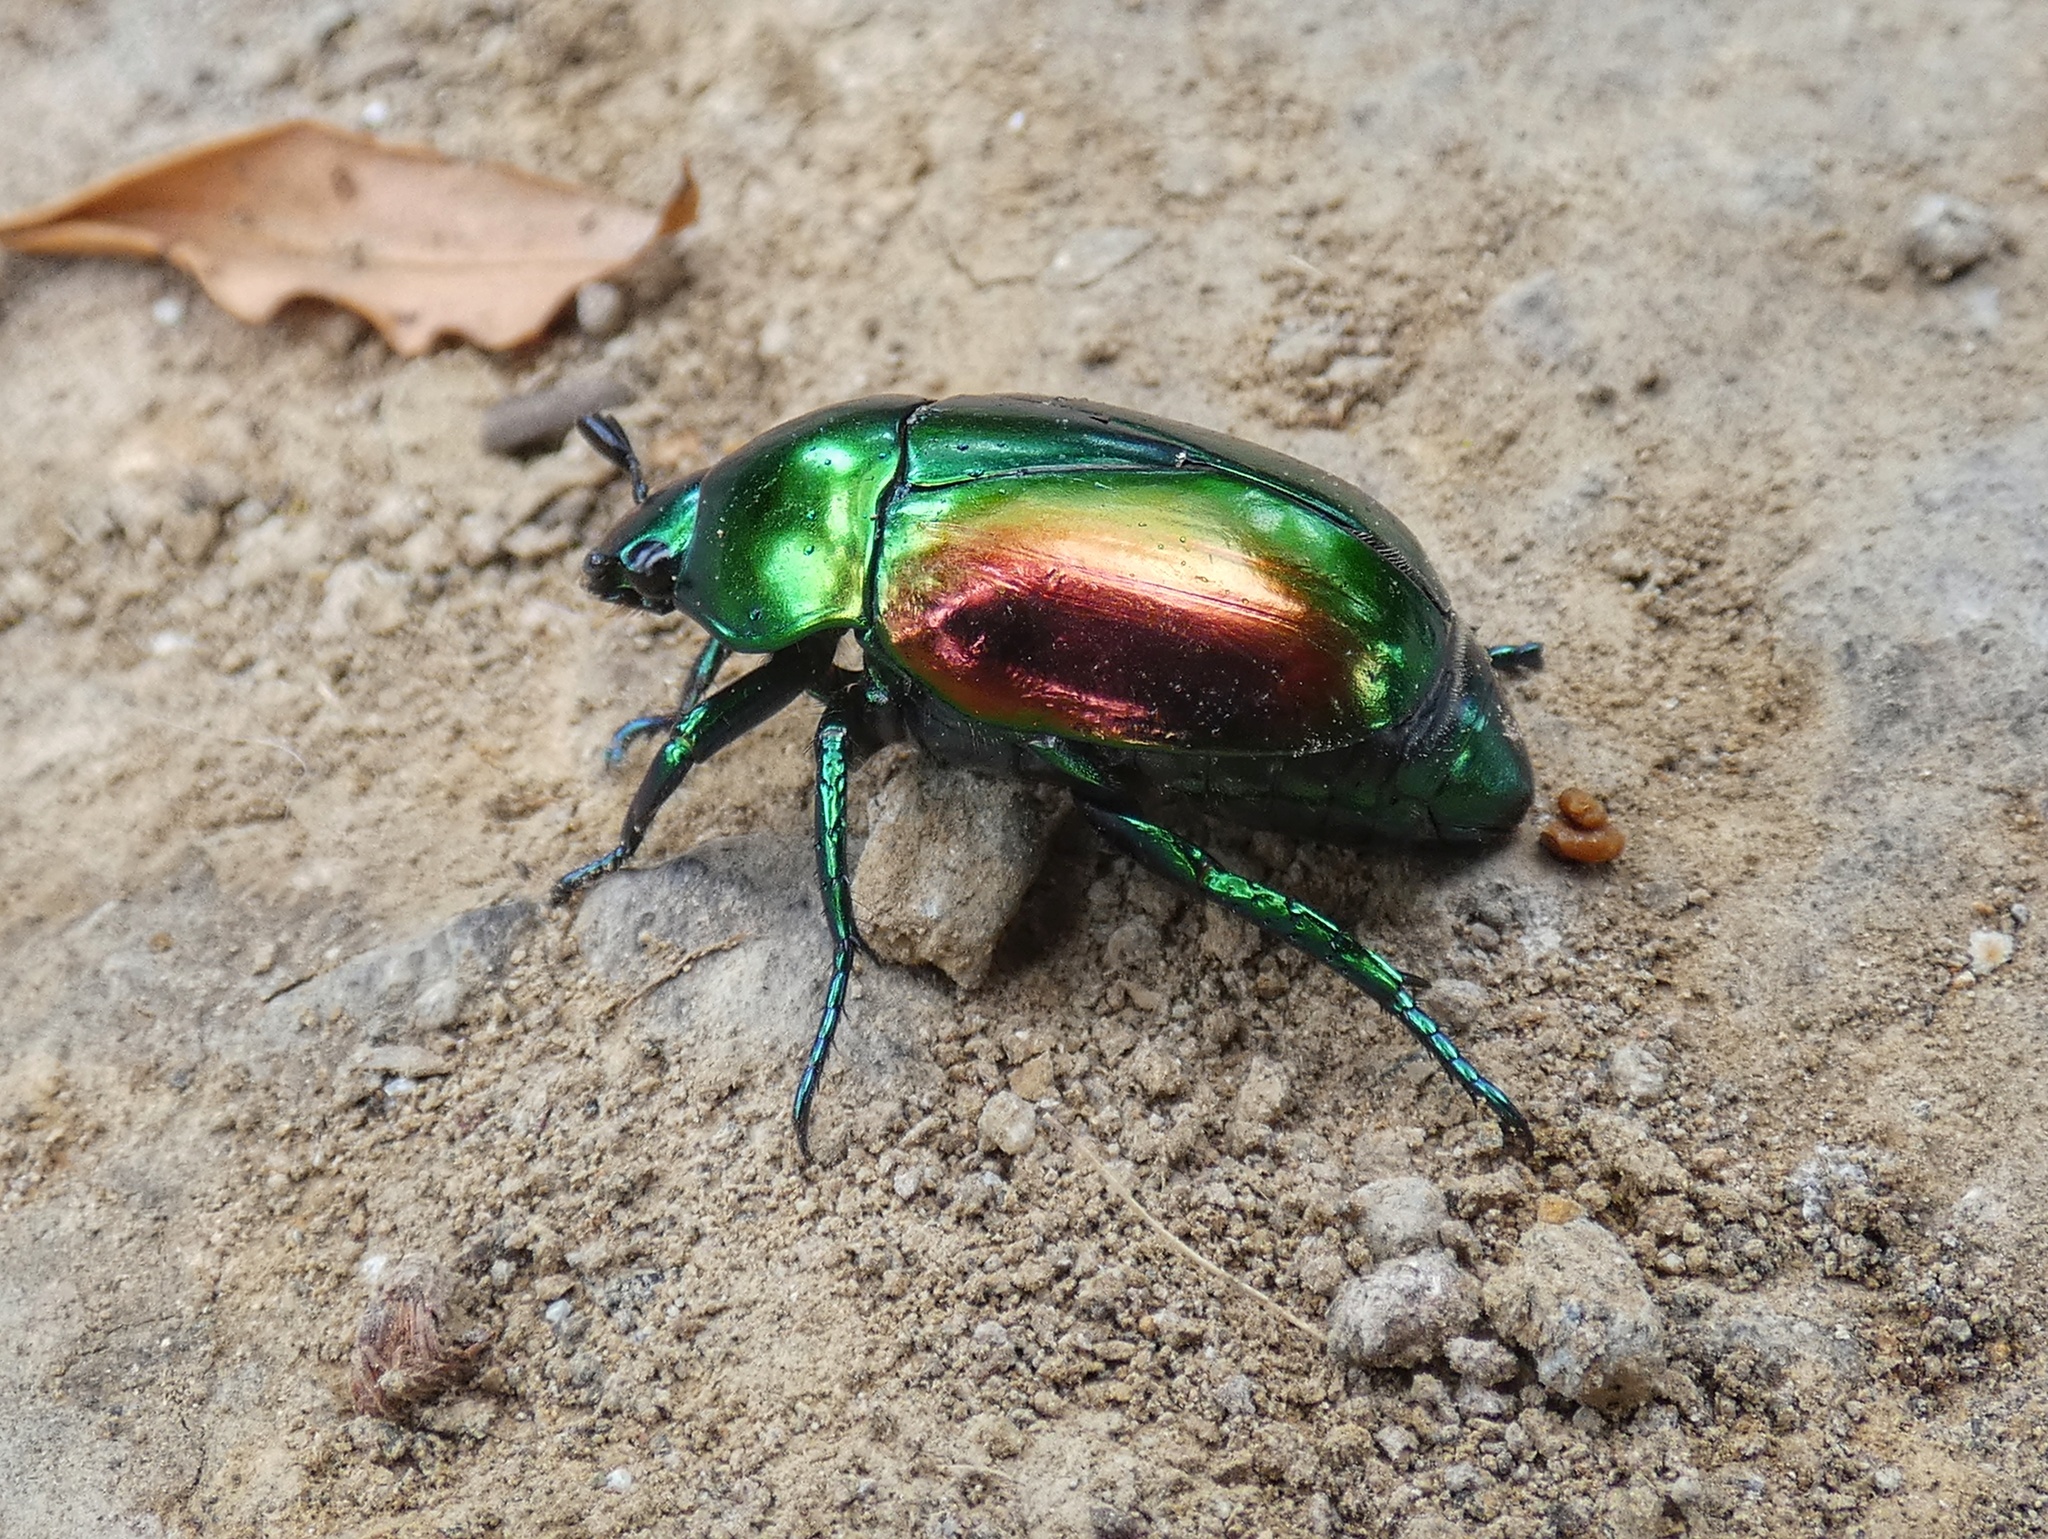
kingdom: Animalia
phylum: Arthropoda
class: Insecta
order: Coleoptera
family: Scarabaeidae
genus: Macraspis
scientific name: Macraspis chrysis
